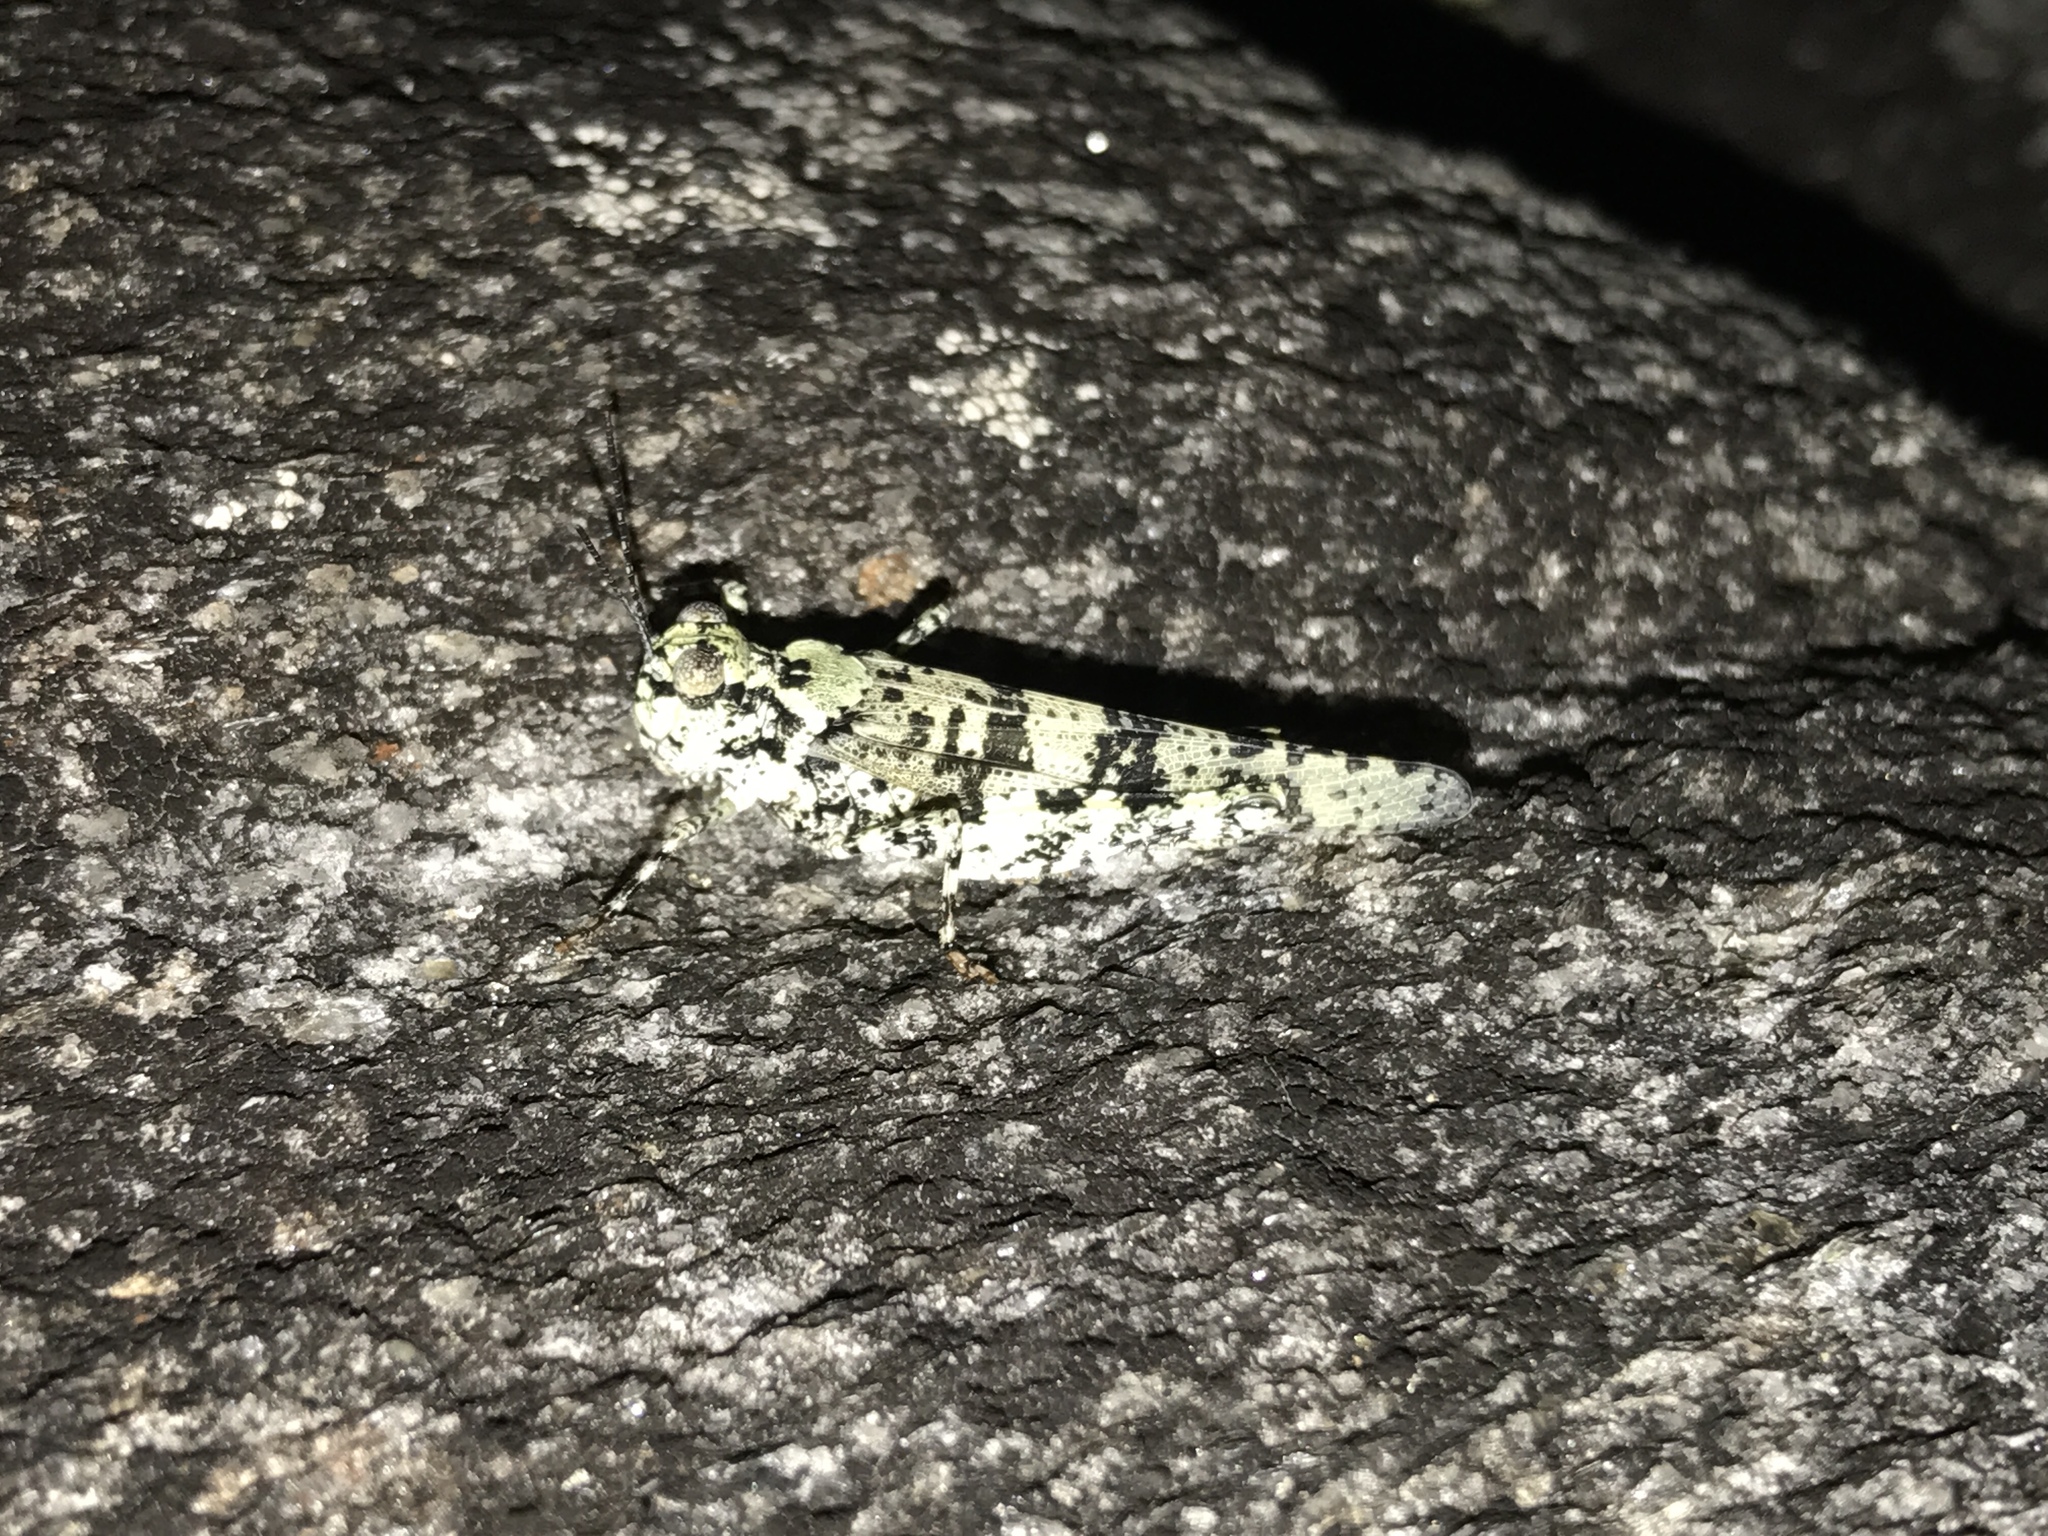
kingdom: Animalia
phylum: Arthropoda
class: Insecta
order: Orthoptera
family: Acrididae
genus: Trimerotropis
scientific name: Trimerotropis saxatilis
